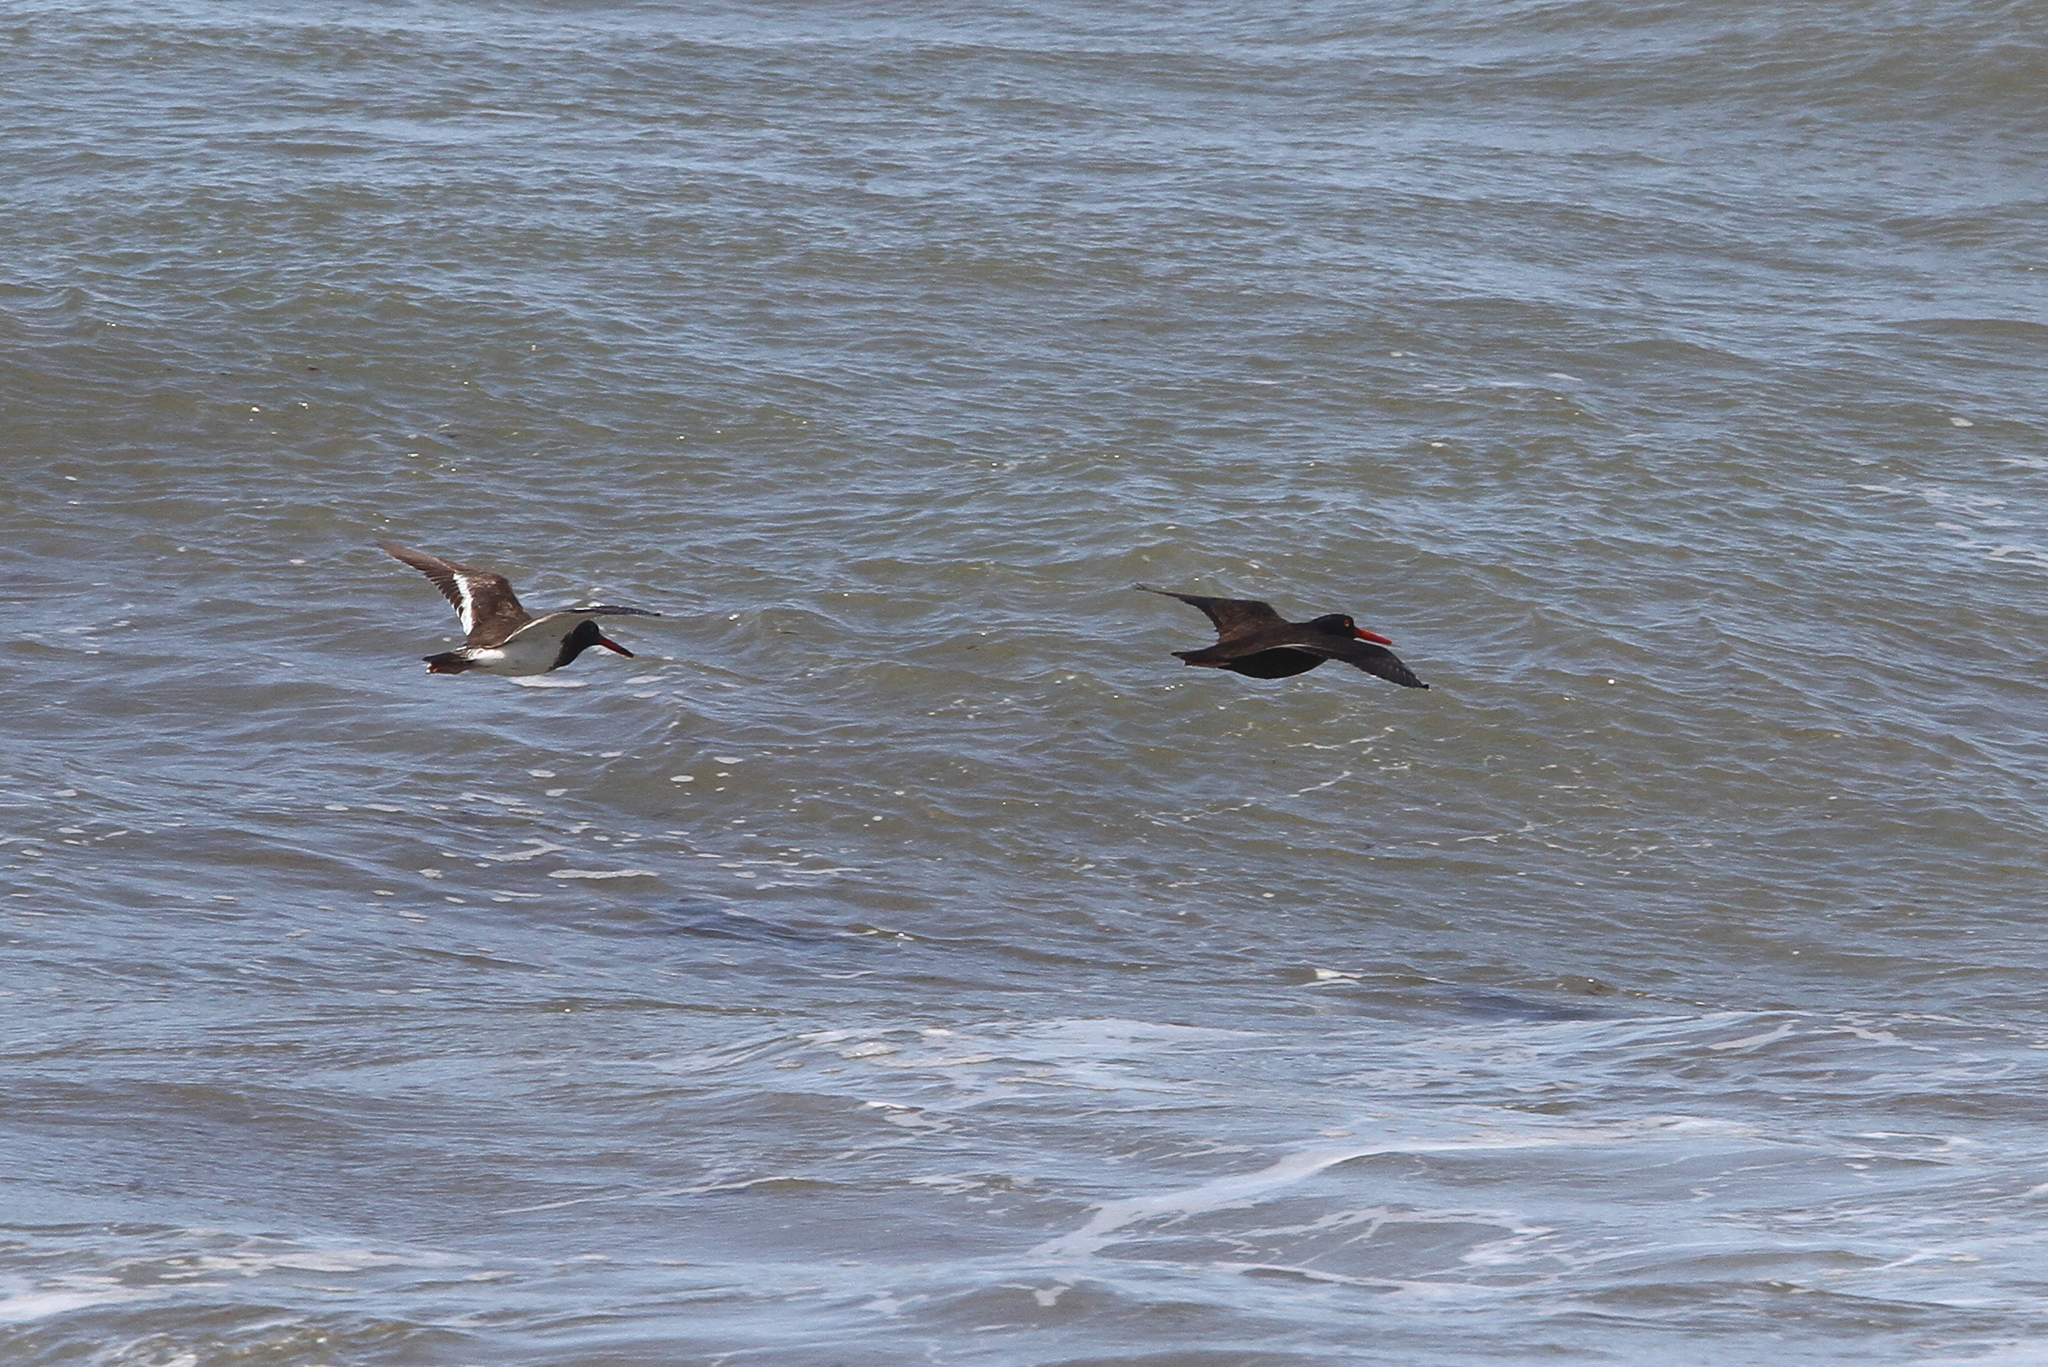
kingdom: Animalia
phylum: Chordata
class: Aves
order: Charadriiformes
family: Haematopodidae
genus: Haematopus
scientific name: Haematopus bachmani
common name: Black oystercatcher
